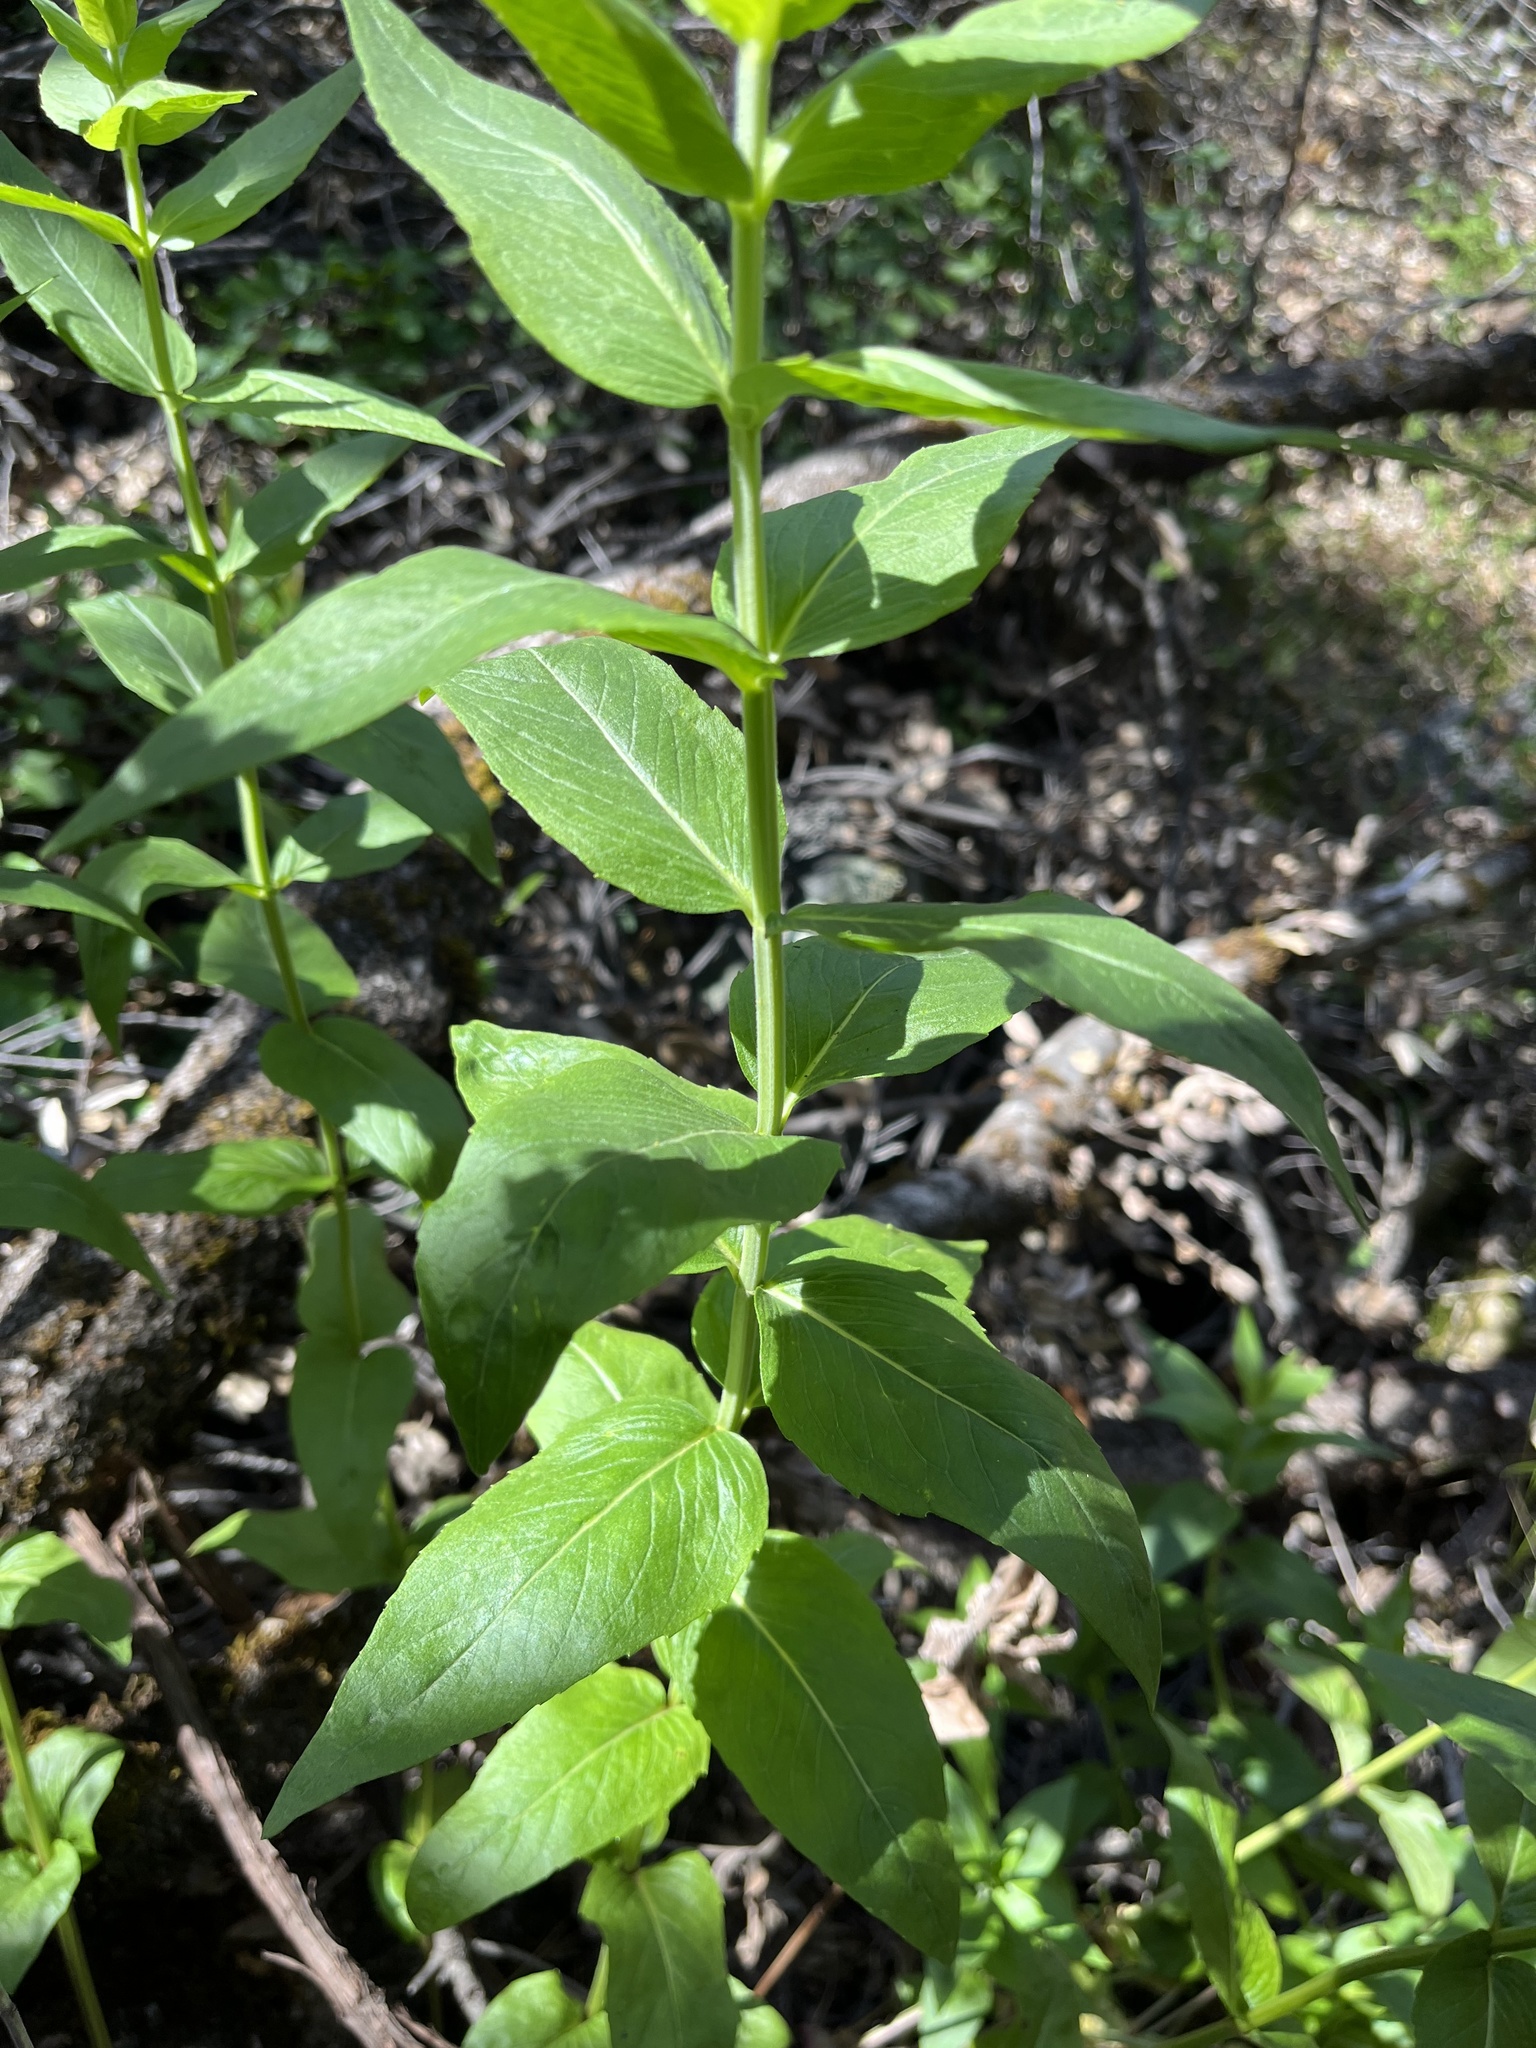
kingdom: Plantae
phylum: Tracheophyta
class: Magnoliopsida
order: Lamiales
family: Lamiaceae
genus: Pycnanthemum
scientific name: Pycnanthemum californicum
